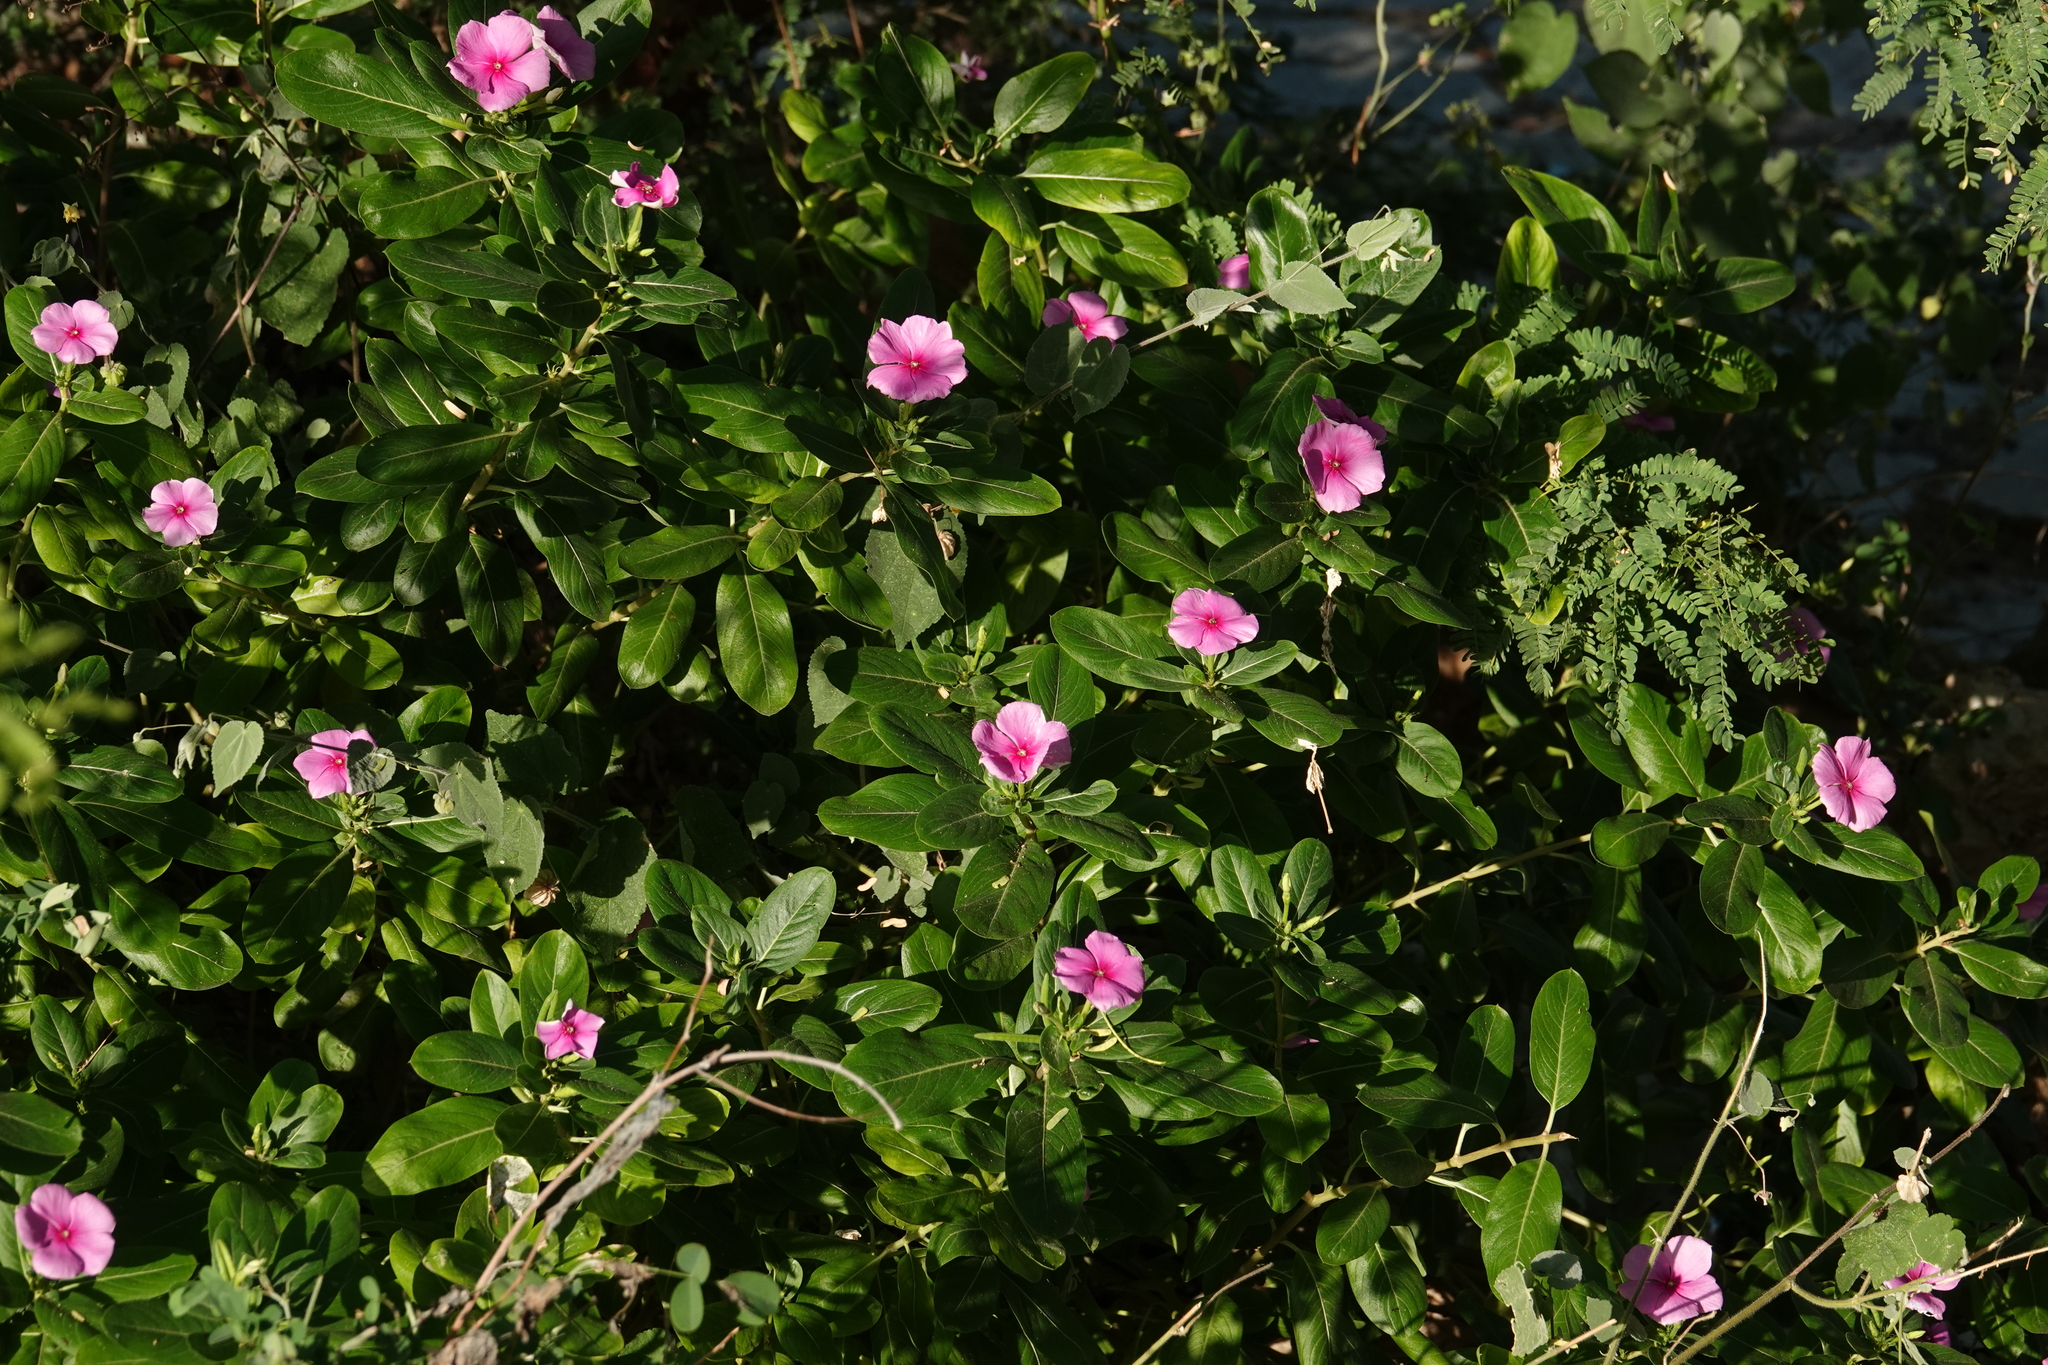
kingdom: Plantae
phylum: Tracheophyta
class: Magnoliopsida
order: Gentianales
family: Apocynaceae
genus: Catharanthus
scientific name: Catharanthus roseus
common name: Madagascar periwinkle
